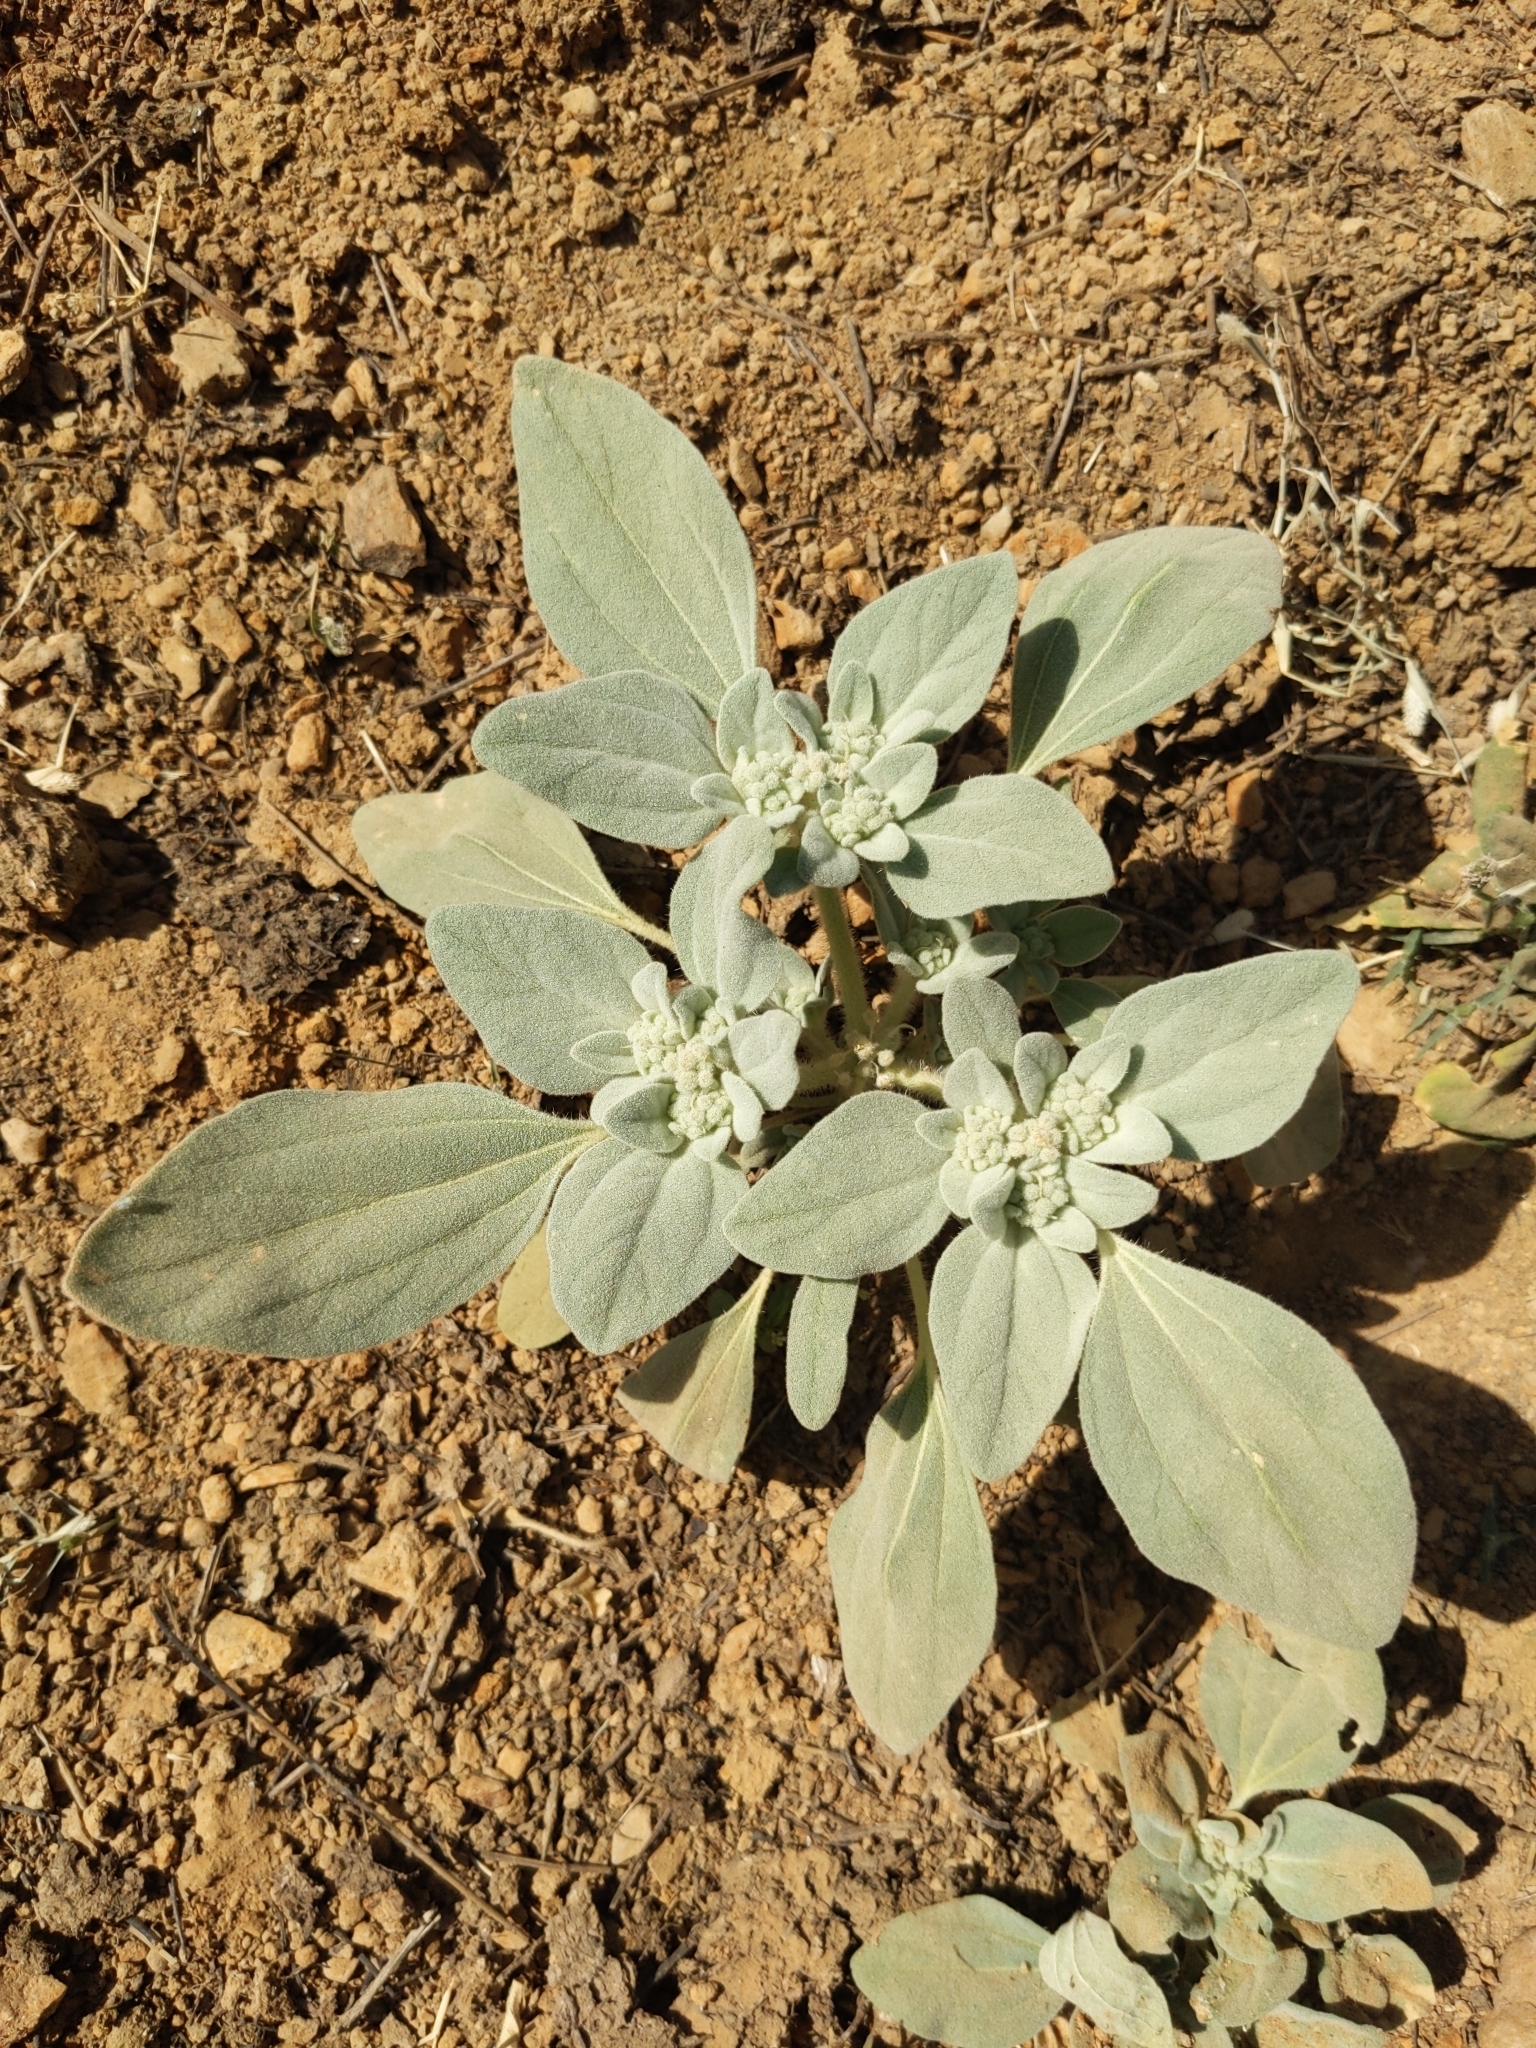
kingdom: Plantae
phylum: Tracheophyta
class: Magnoliopsida
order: Malpighiales
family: Euphorbiaceae
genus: Croton
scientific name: Croton setiger
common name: Dove weed
